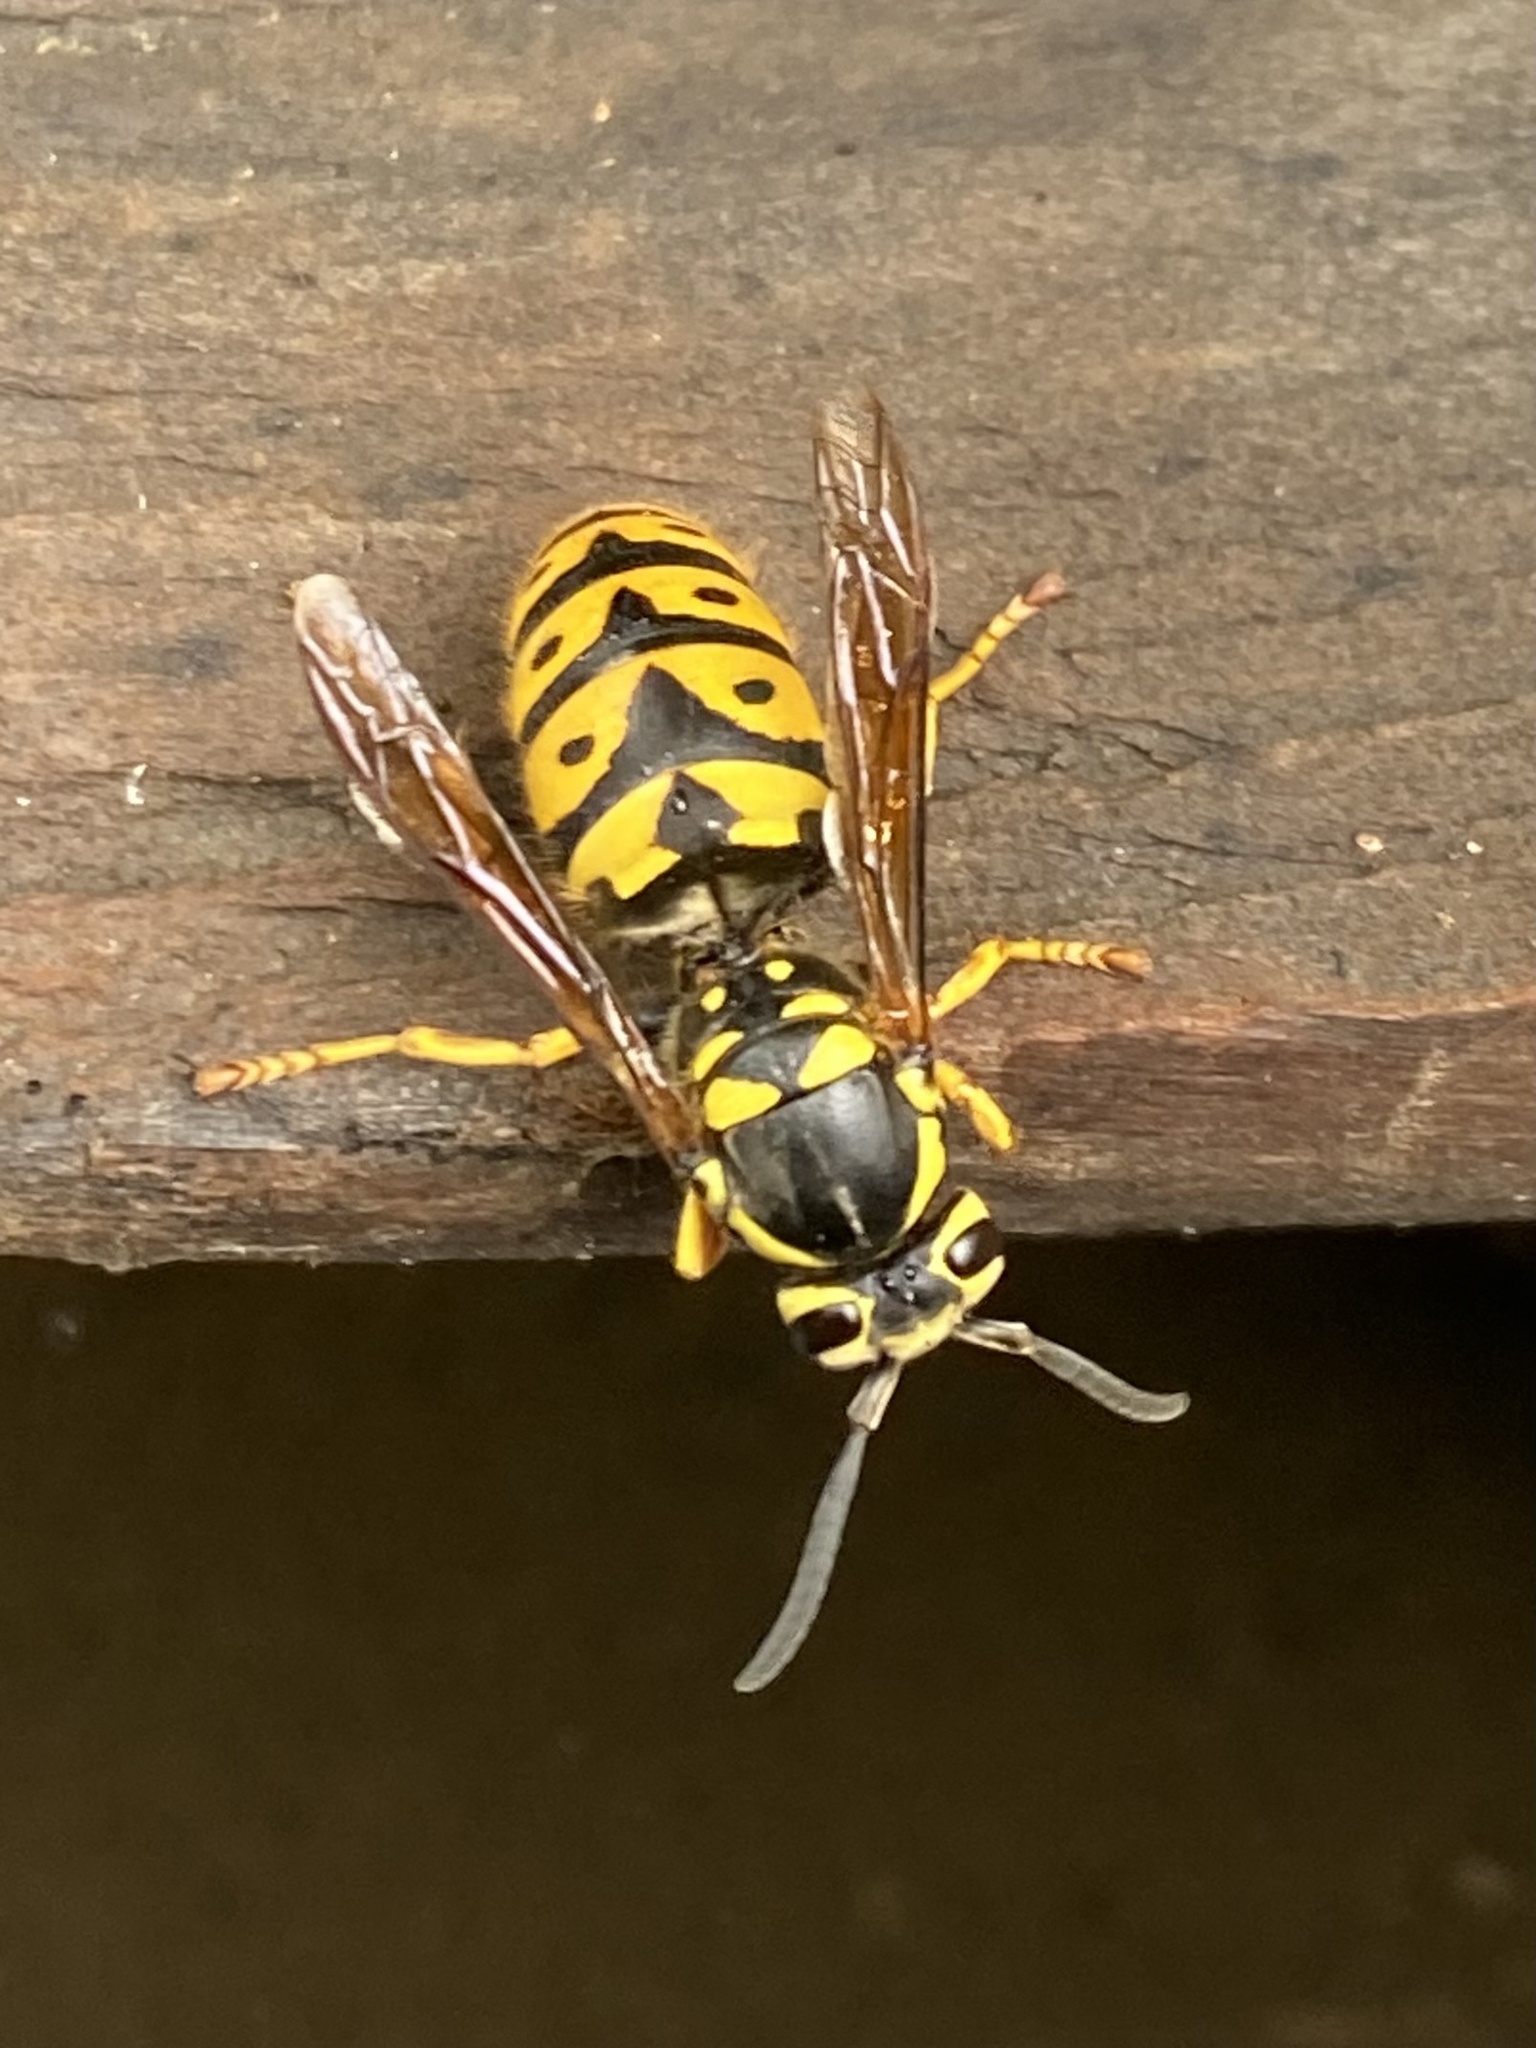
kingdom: Animalia
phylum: Arthropoda
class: Insecta
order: Hymenoptera
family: Vespidae
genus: Vespula
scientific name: Vespula pensylvanica
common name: Western yellowjacket
